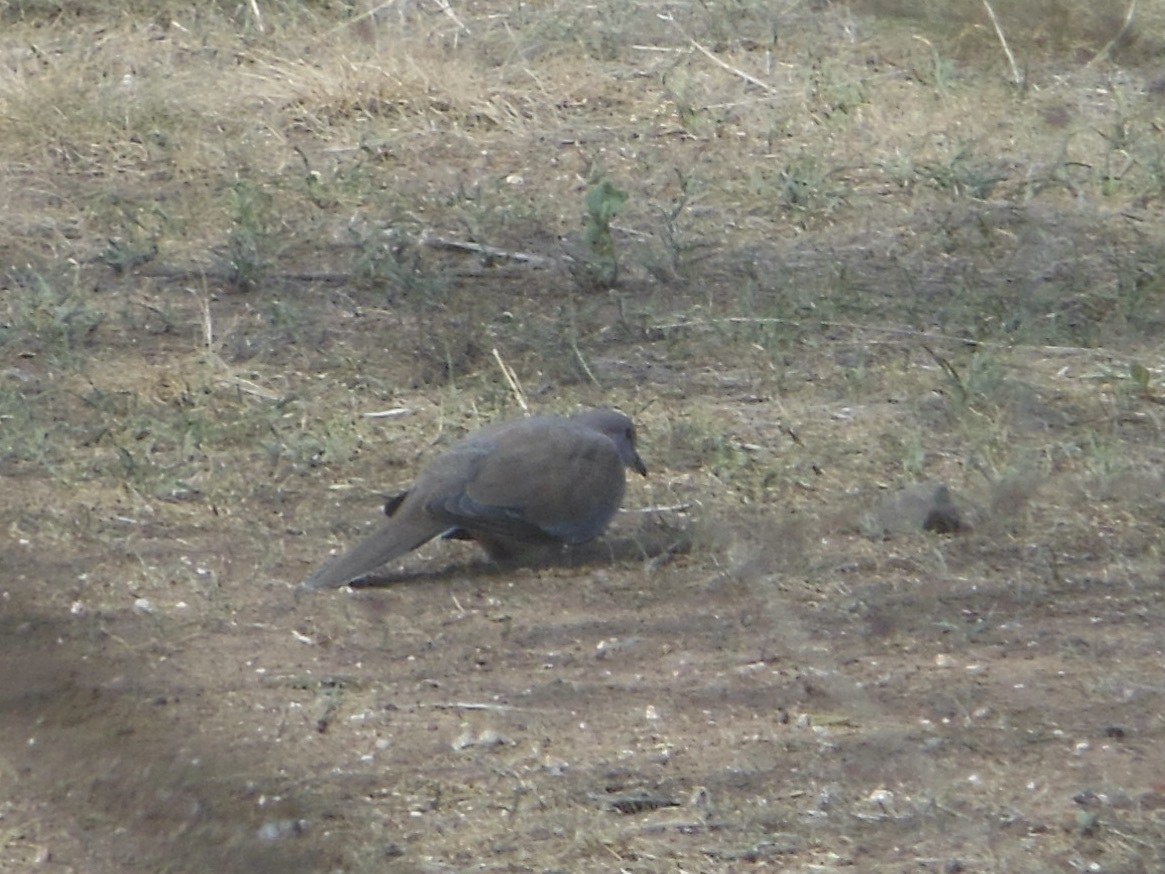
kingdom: Animalia
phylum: Chordata
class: Aves
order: Columbiformes
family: Columbidae
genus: Spilopelia
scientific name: Spilopelia senegalensis
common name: Laughing dove
